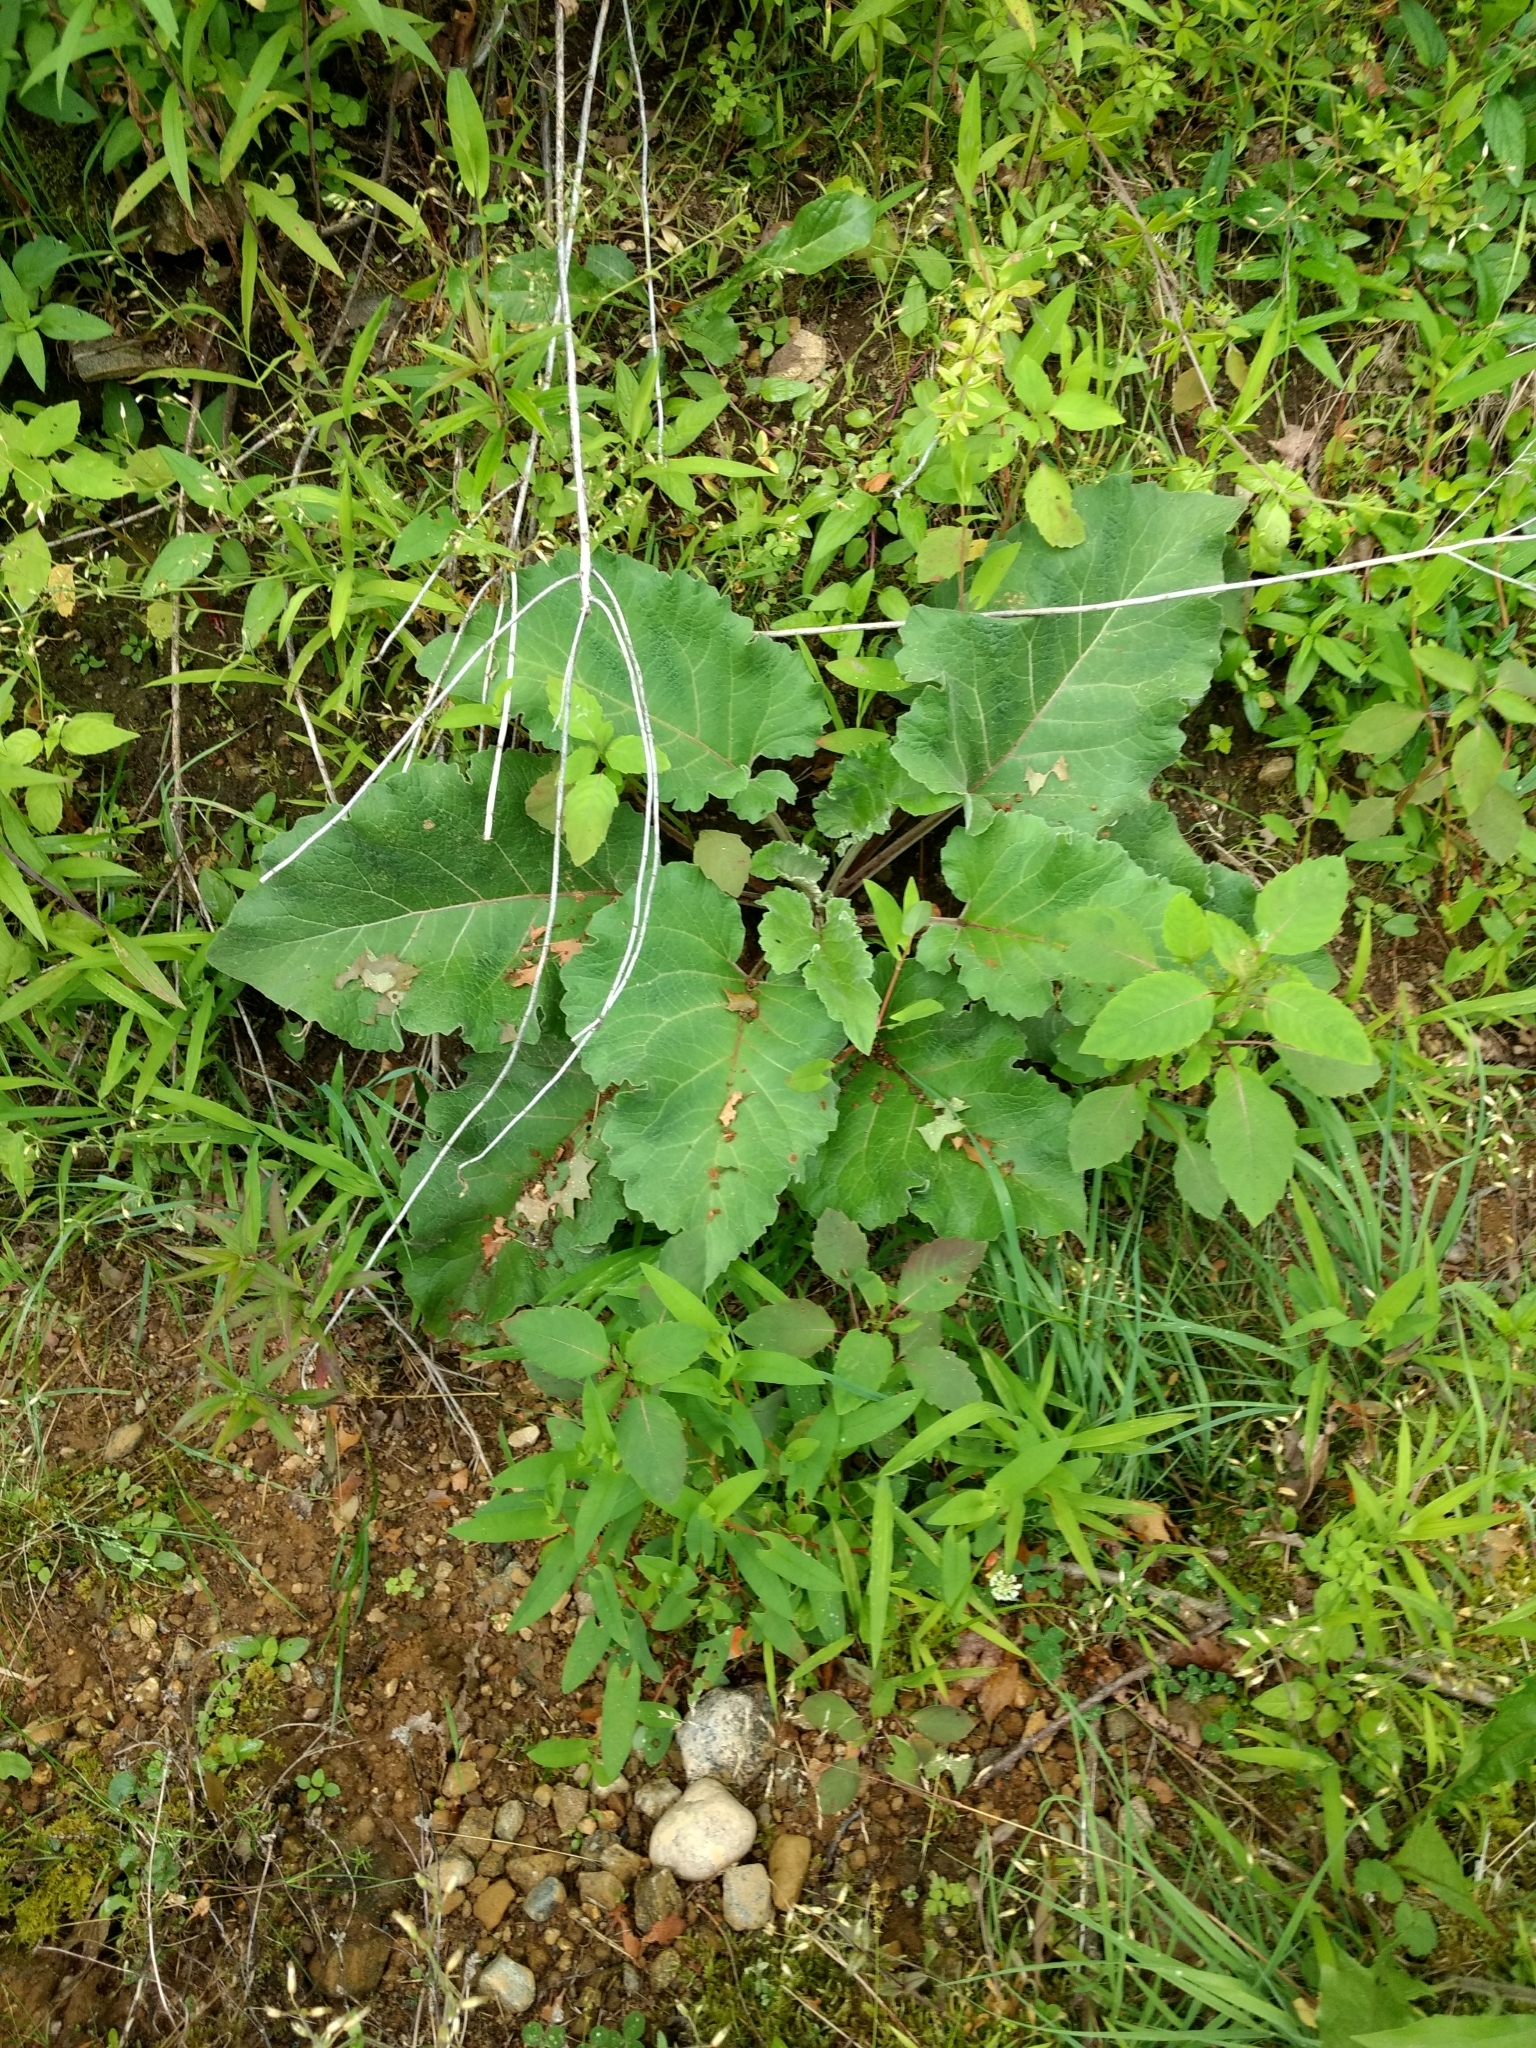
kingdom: Plantae
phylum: Tracheophyta
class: Magnoliopsida
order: Asterales
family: Asteraceae
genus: Arctium
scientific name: Arctium
